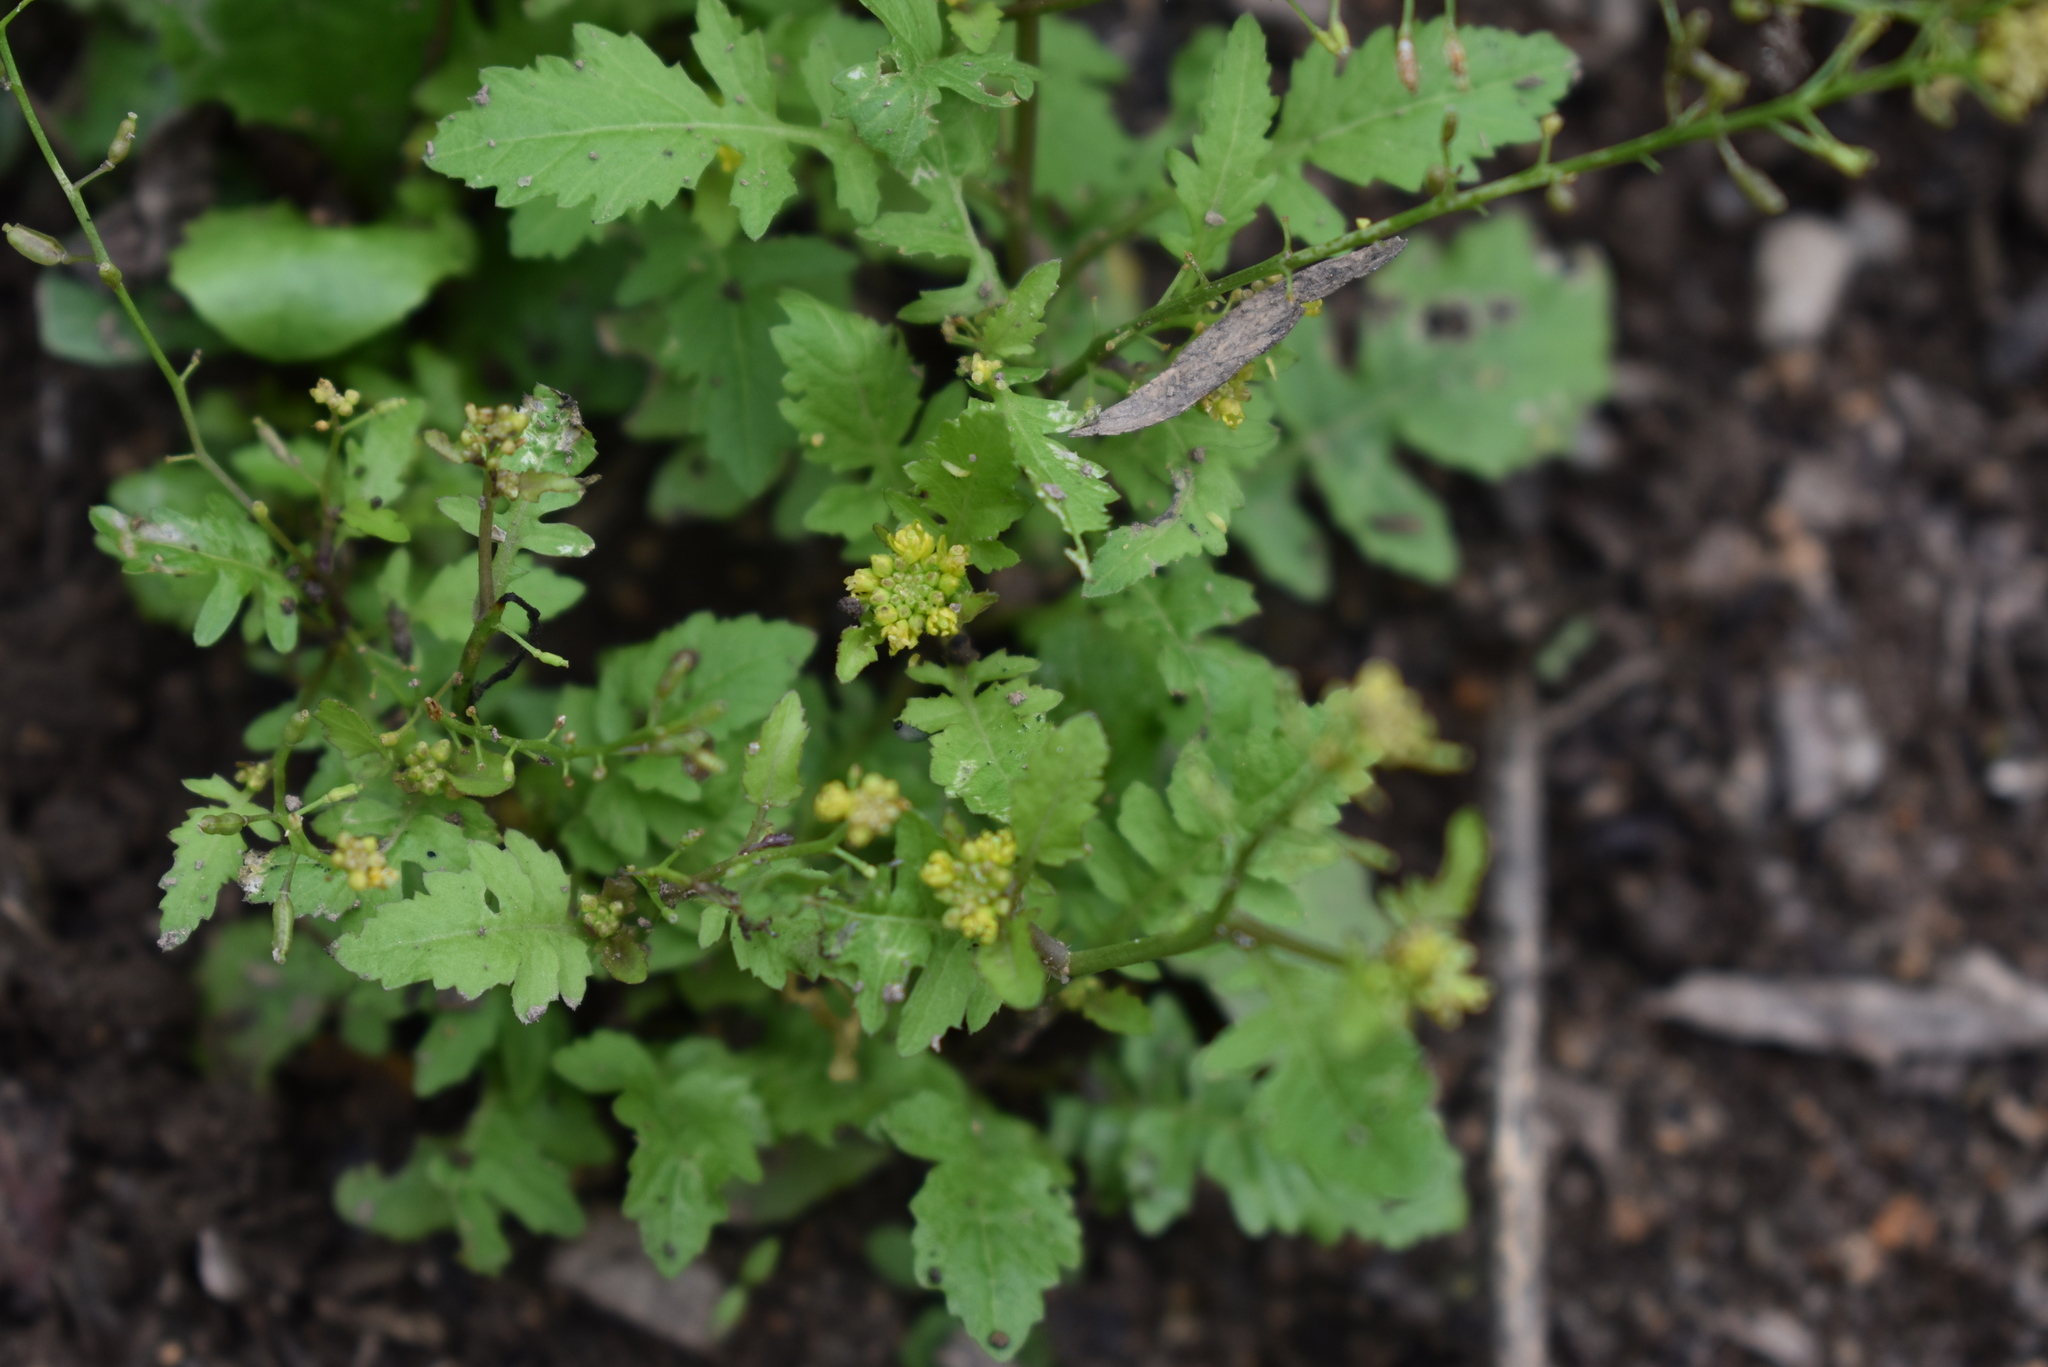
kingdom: Plantae
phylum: Tracheophyta
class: Magnoliopsida
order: Brassicales
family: Brassicaceae
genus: Rorippa
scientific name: Rorippa palustris
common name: Marsh yellow-cress
